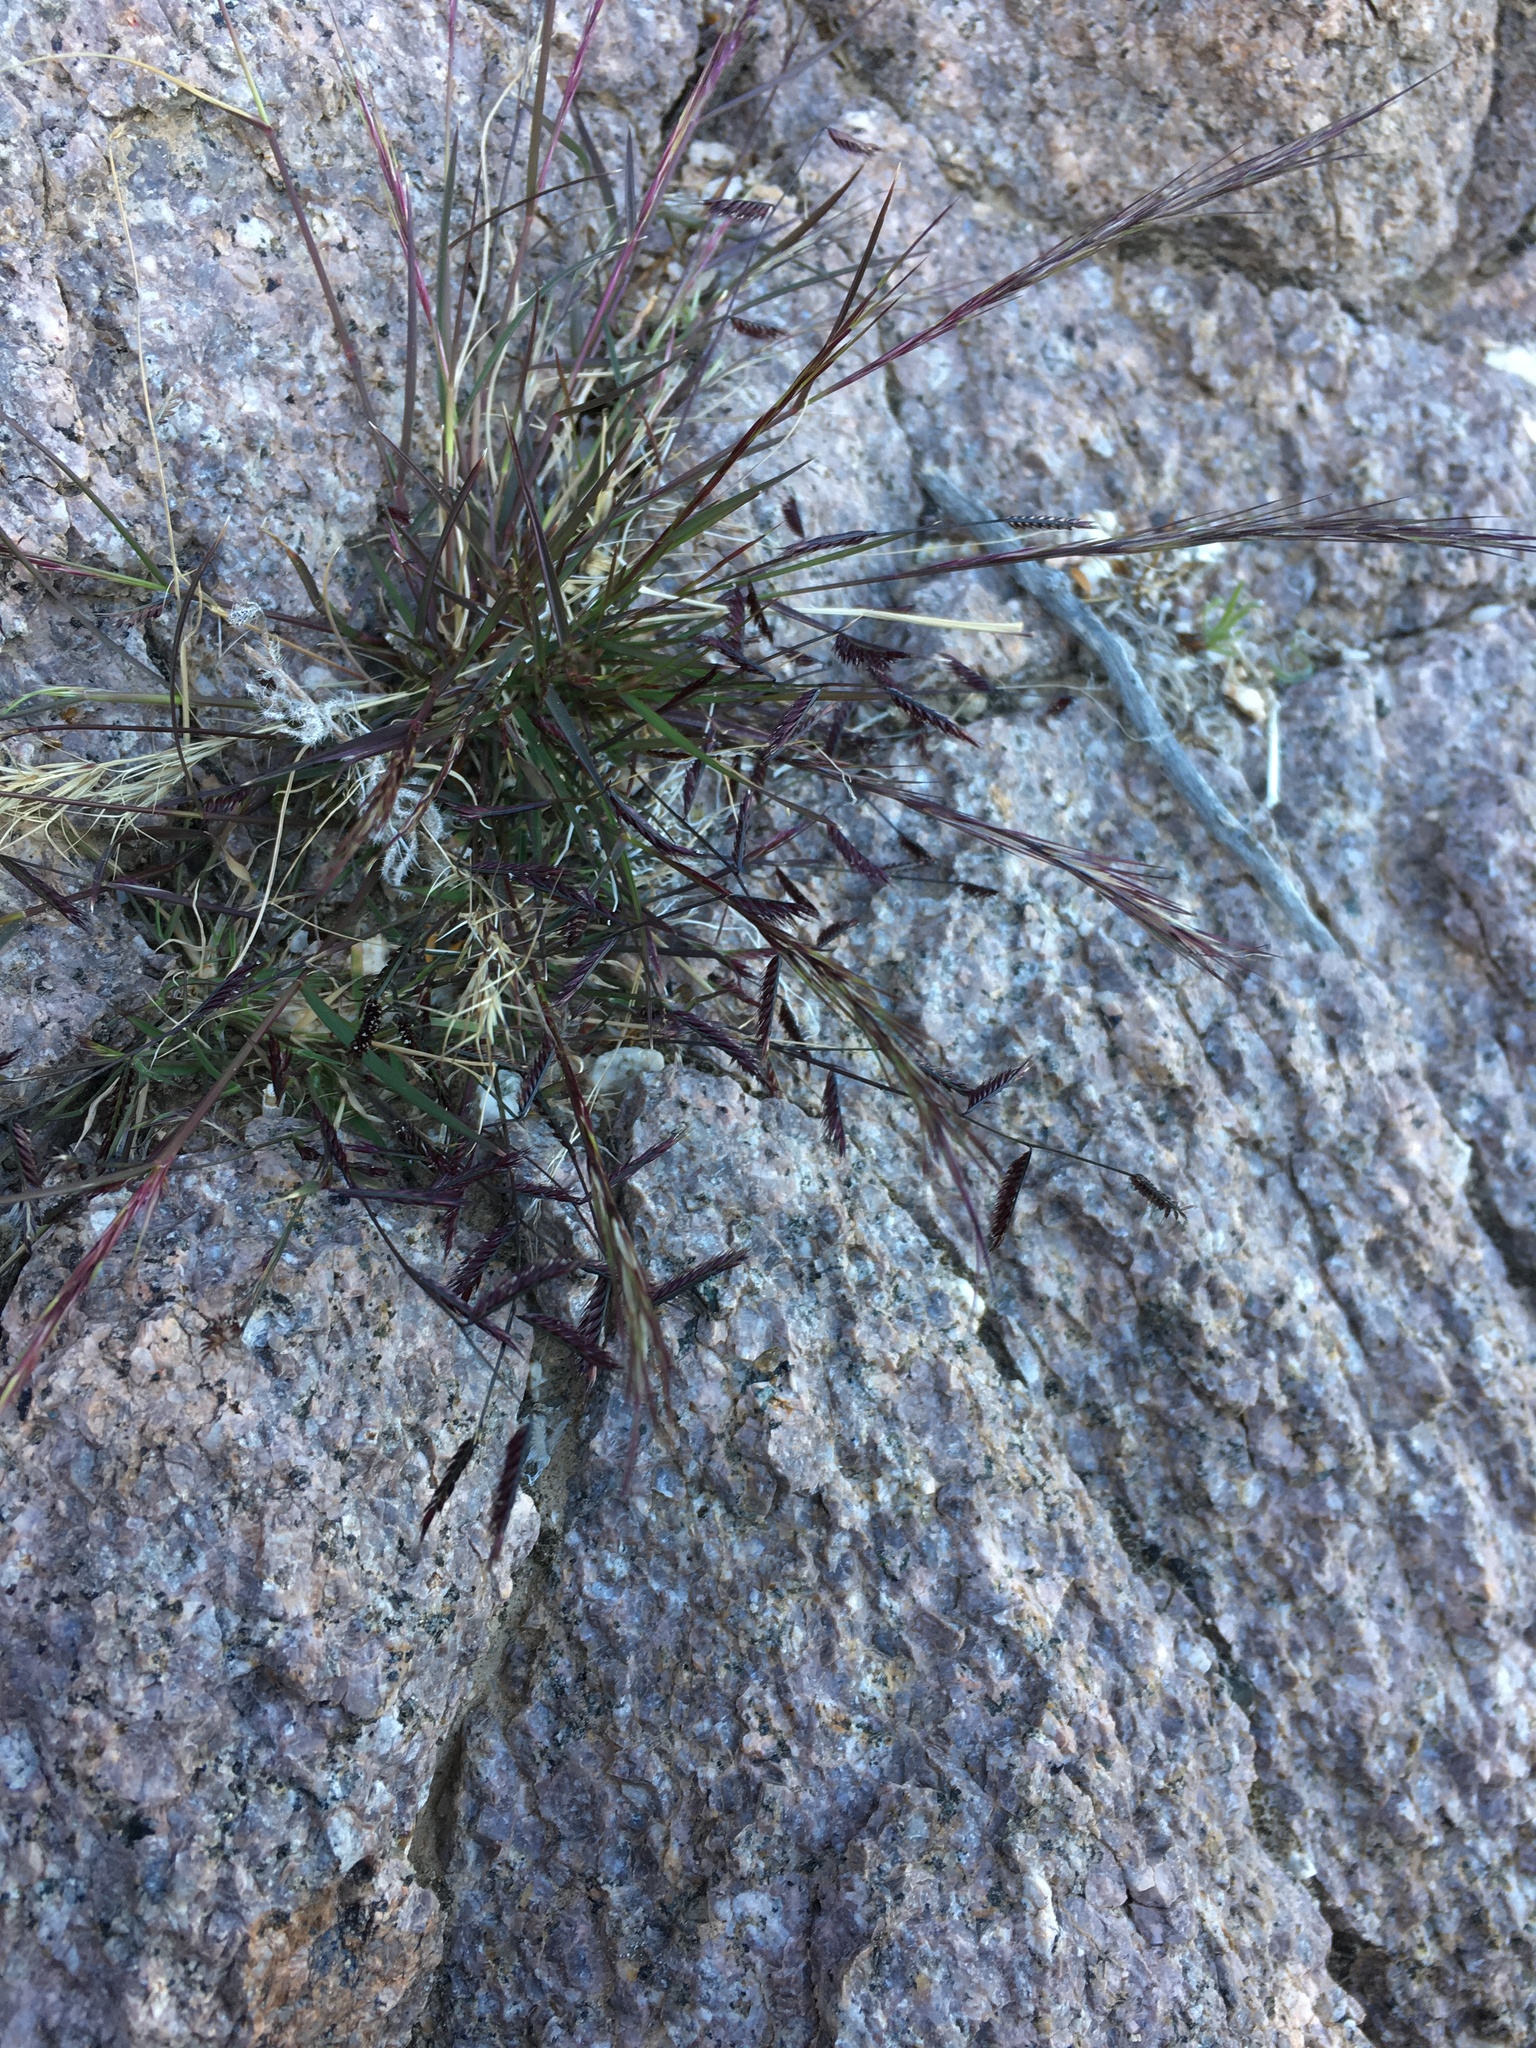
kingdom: Plantae
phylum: Tracheophyta
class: Liliopsida
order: Poales
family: Poaceae
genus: Bouteloua
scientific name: Bouteloua trifida
